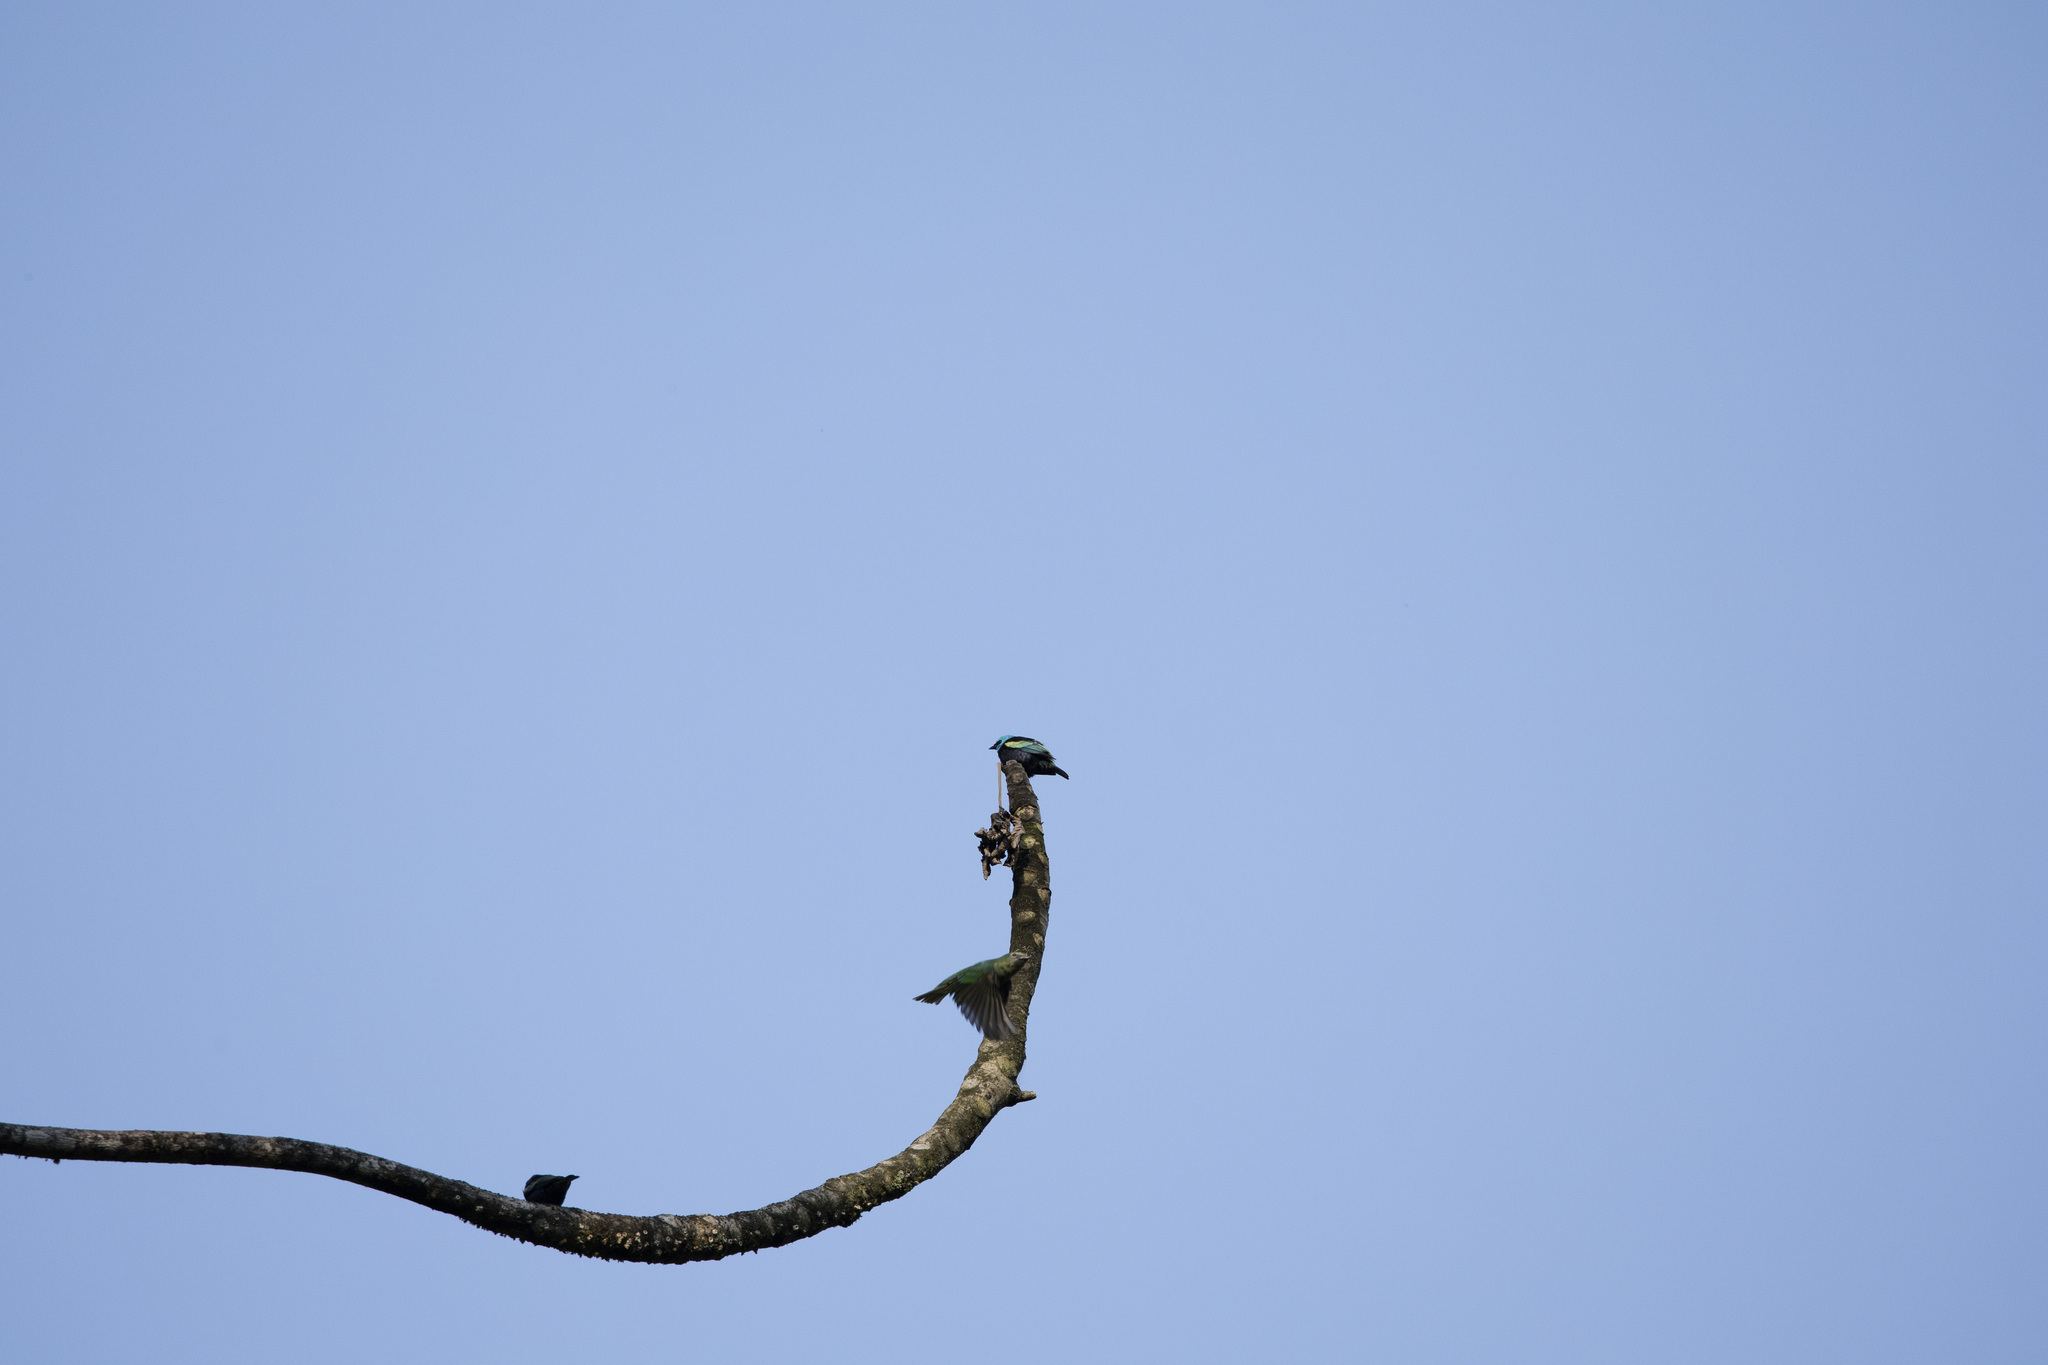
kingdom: Animalia
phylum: Chordata
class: Aves
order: Passeriformes
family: Thraupidae
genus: Stilpnia
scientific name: Stilpnia cyanicollis
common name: Blue-necked tanager
